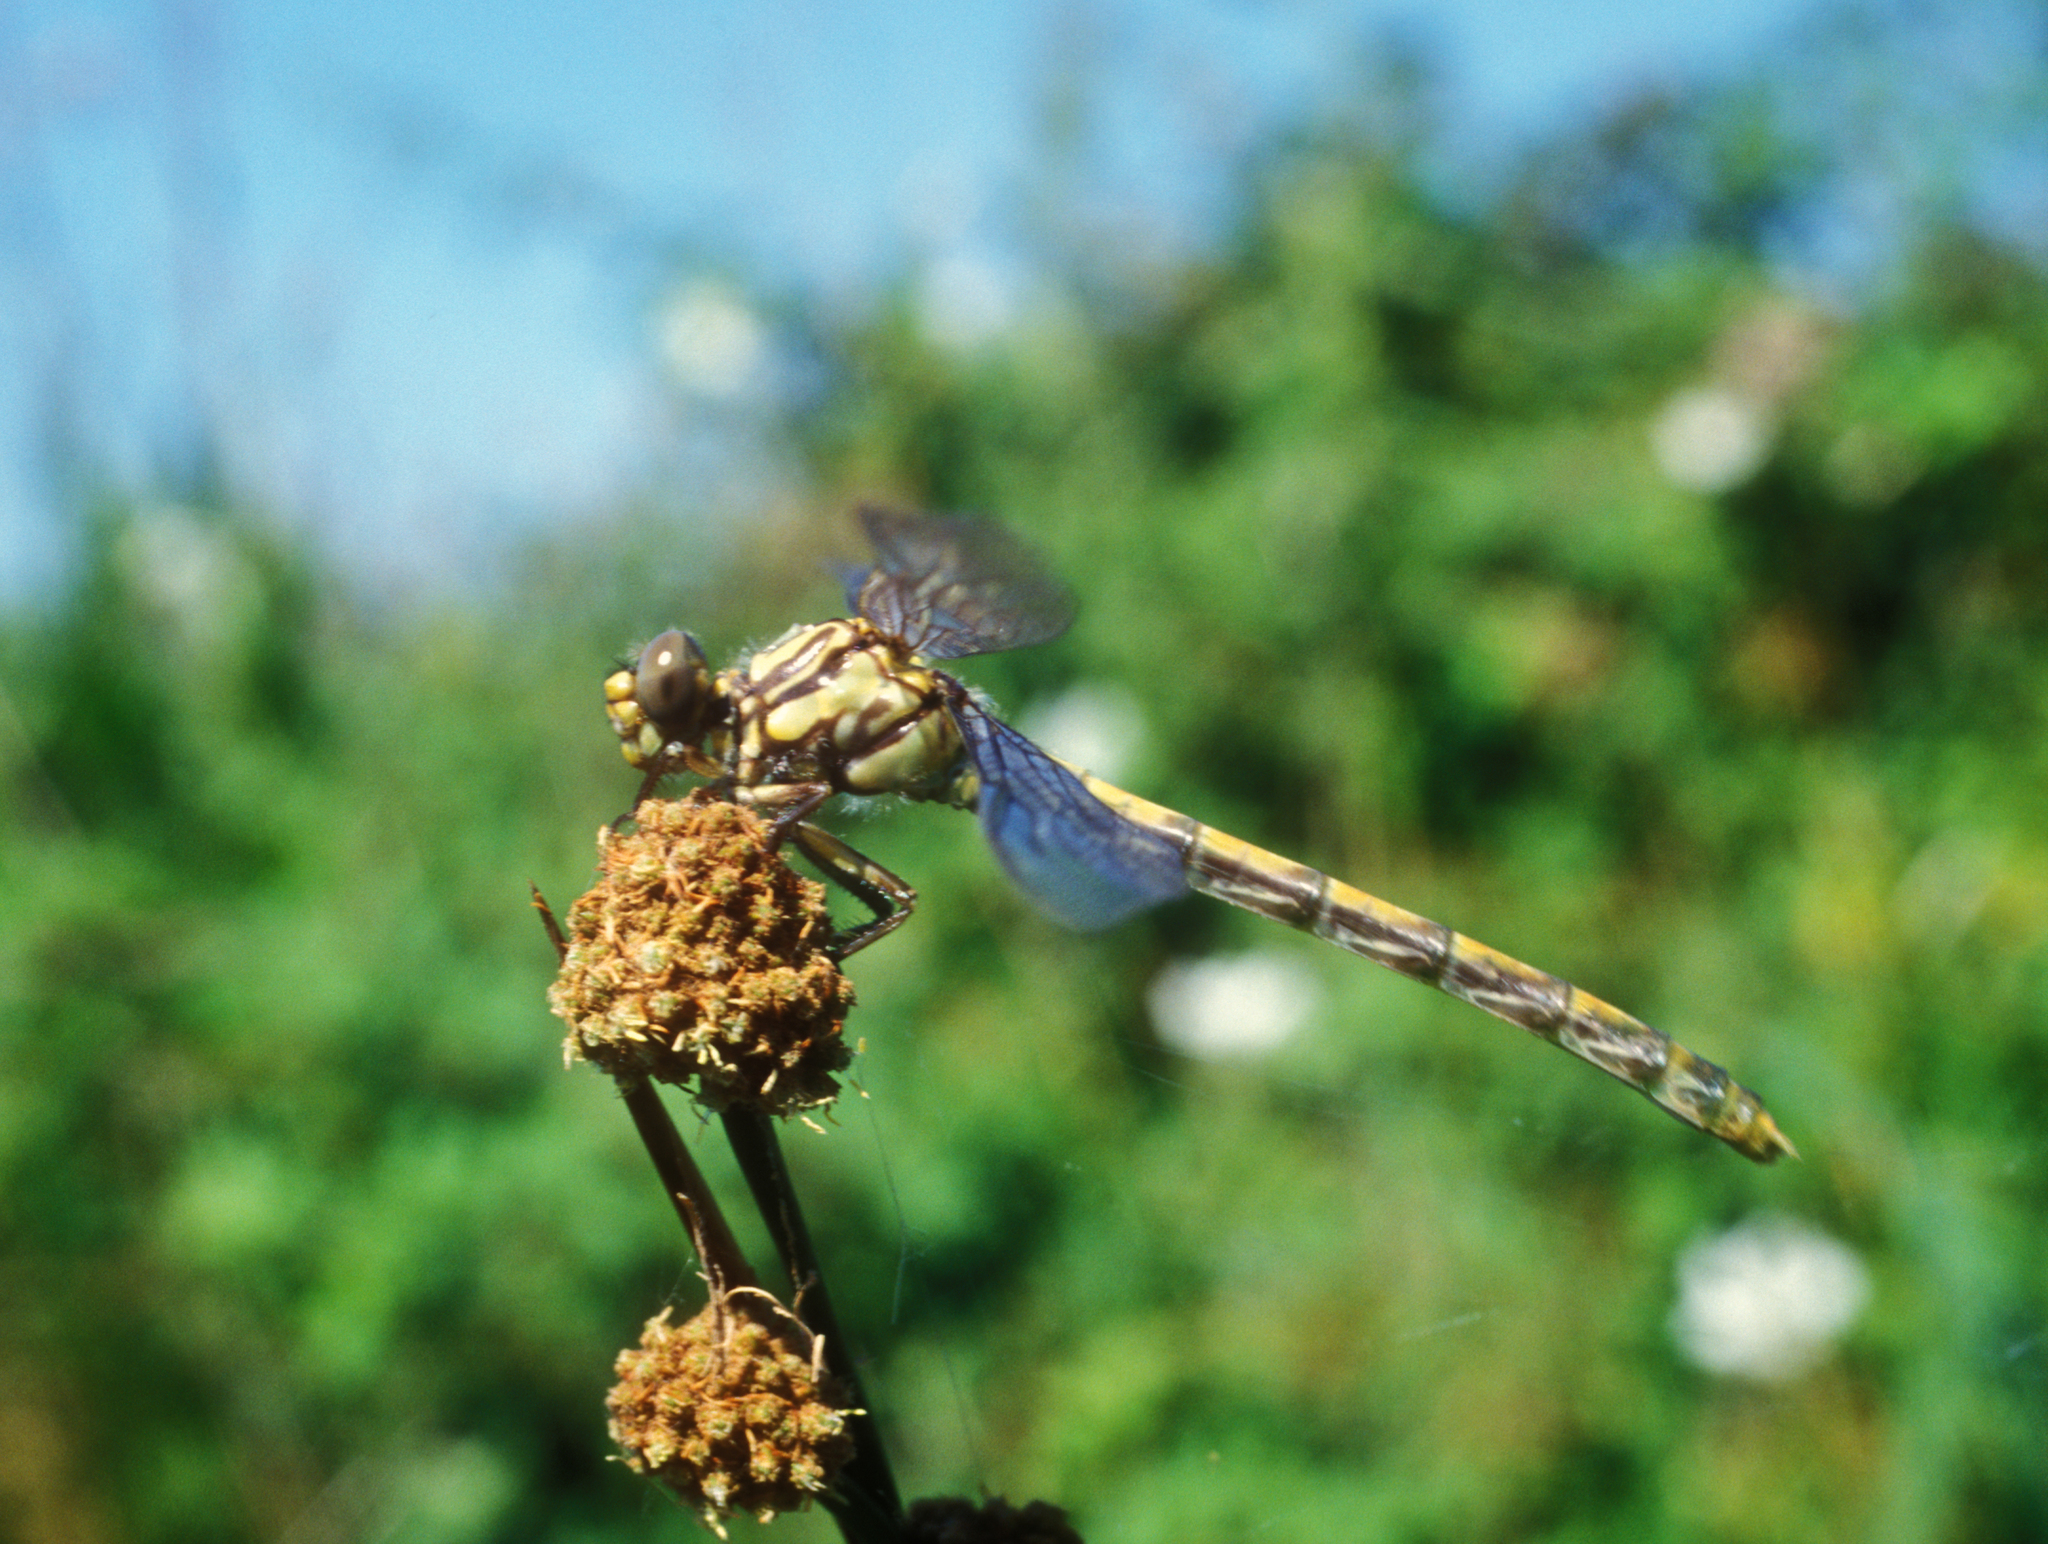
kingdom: Animalia
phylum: Arthropoda
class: Insecta
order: Odonata
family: Gomphidae
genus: Onychogomphus
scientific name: Onychogomphus uncatus
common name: Large pincertail
